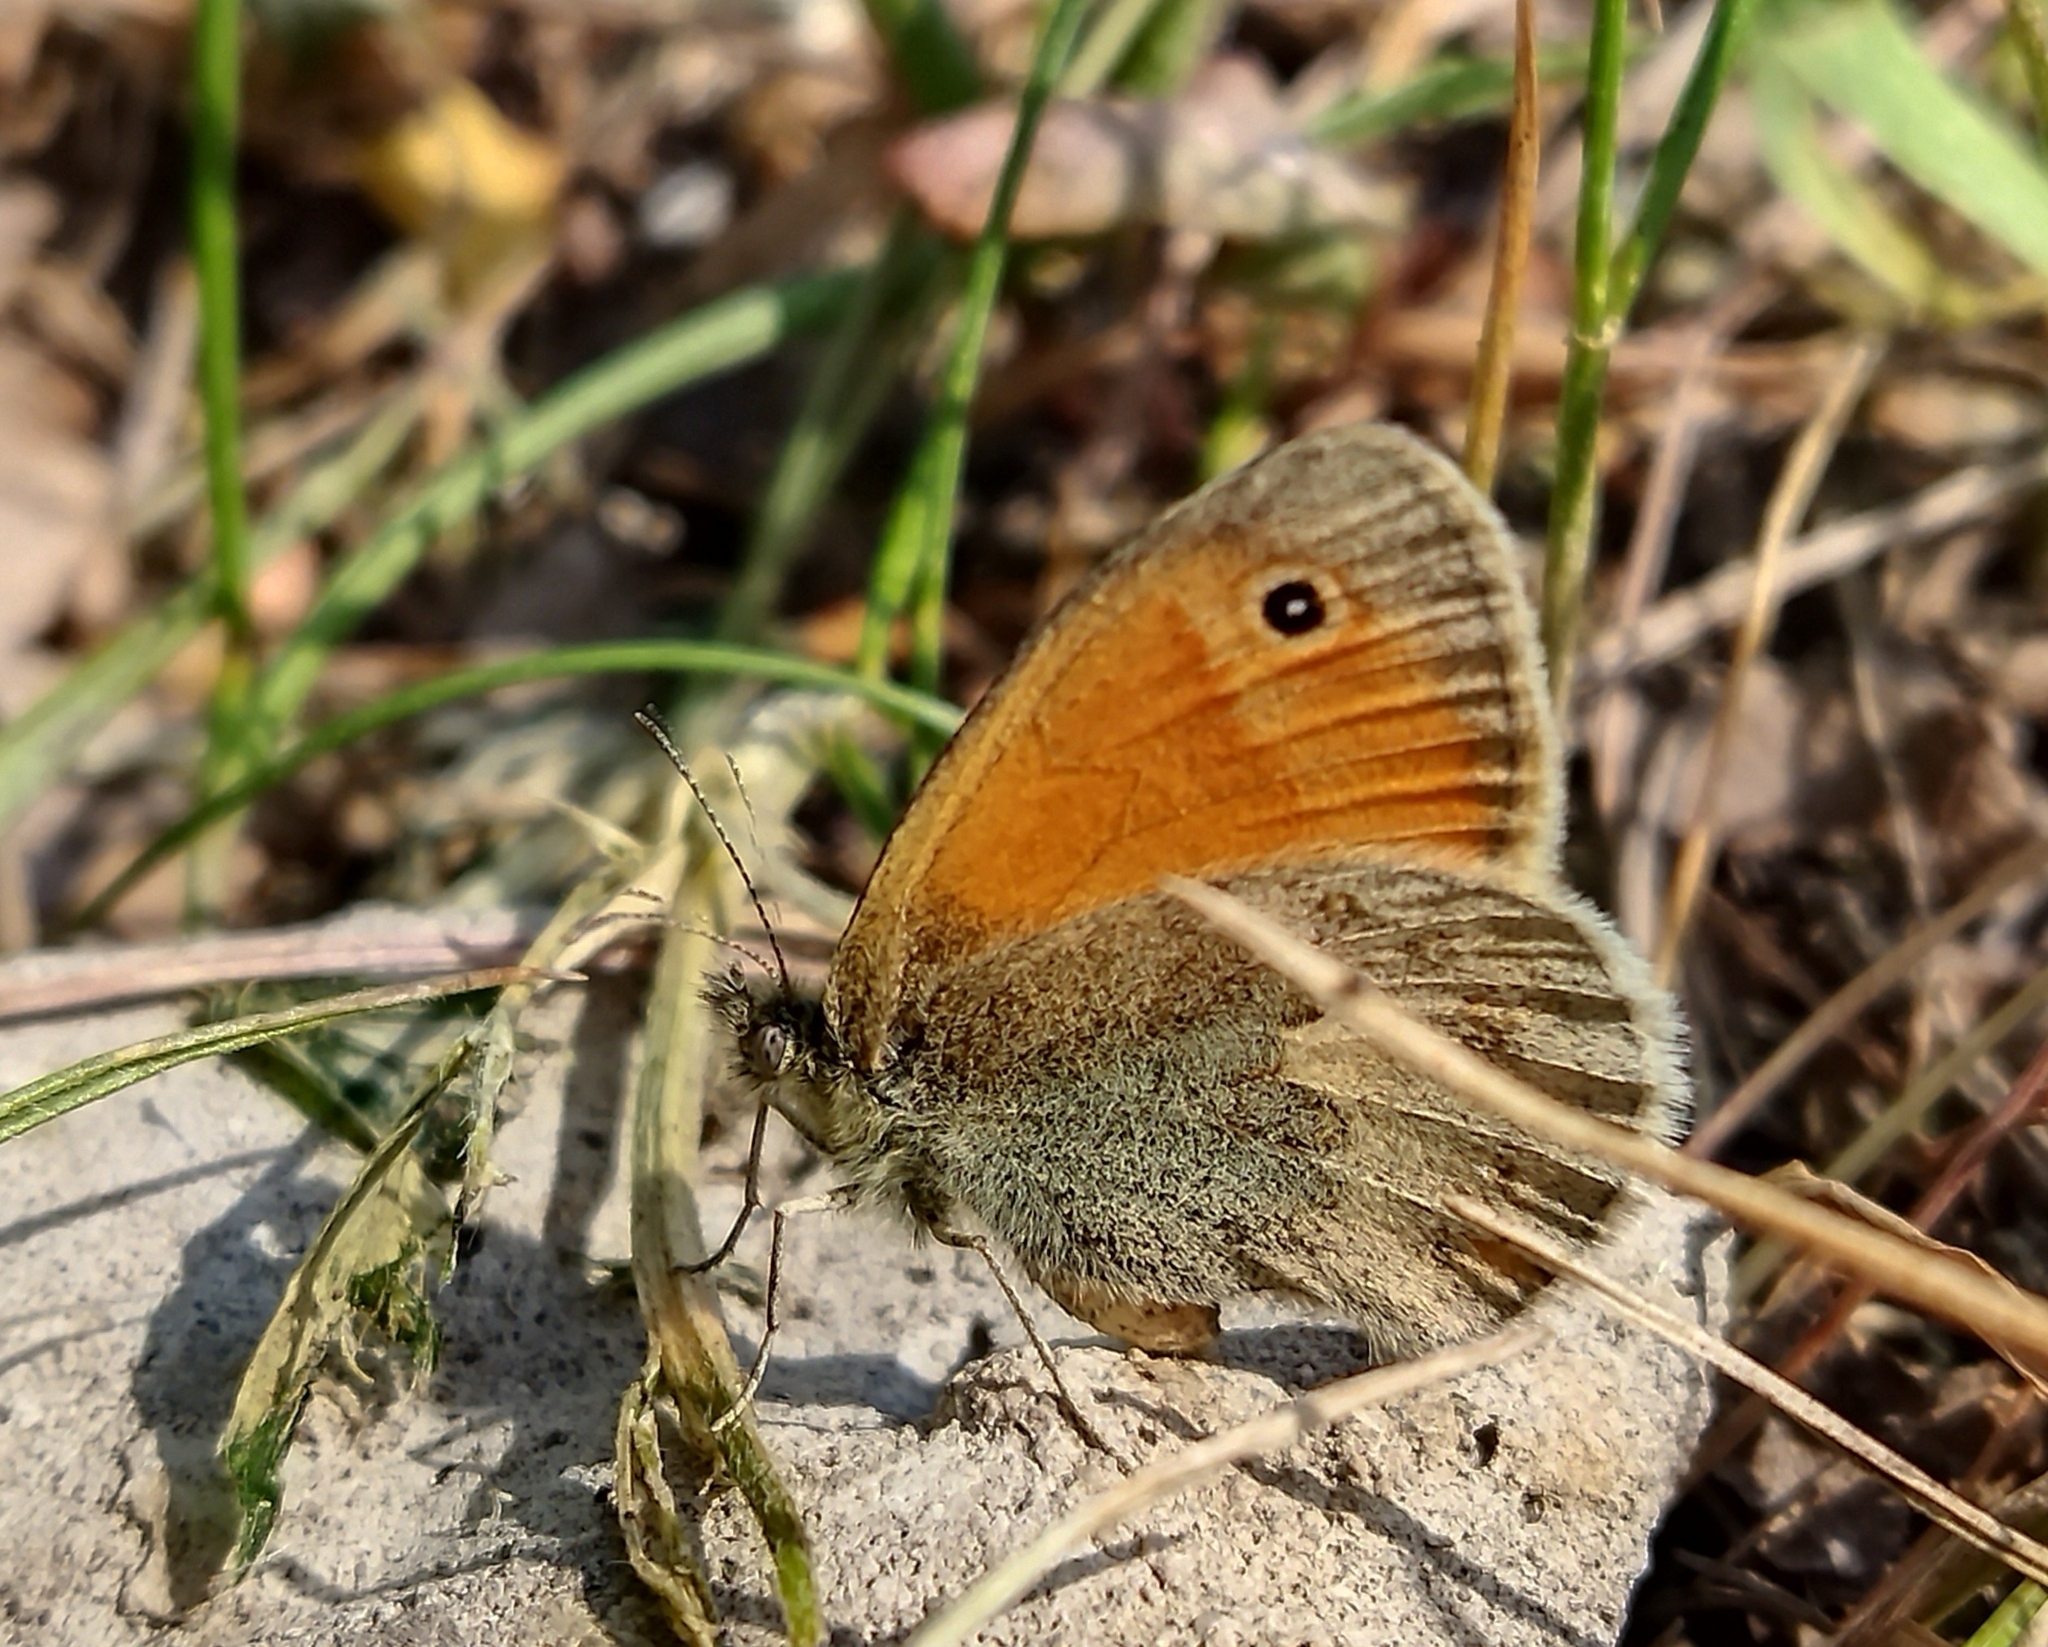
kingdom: Animalia
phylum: Arthropoda
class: Insecta
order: Lepidoptera
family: Nymphalidae
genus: Coenonympha
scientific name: Coenonympha pamphilus
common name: Small heath
